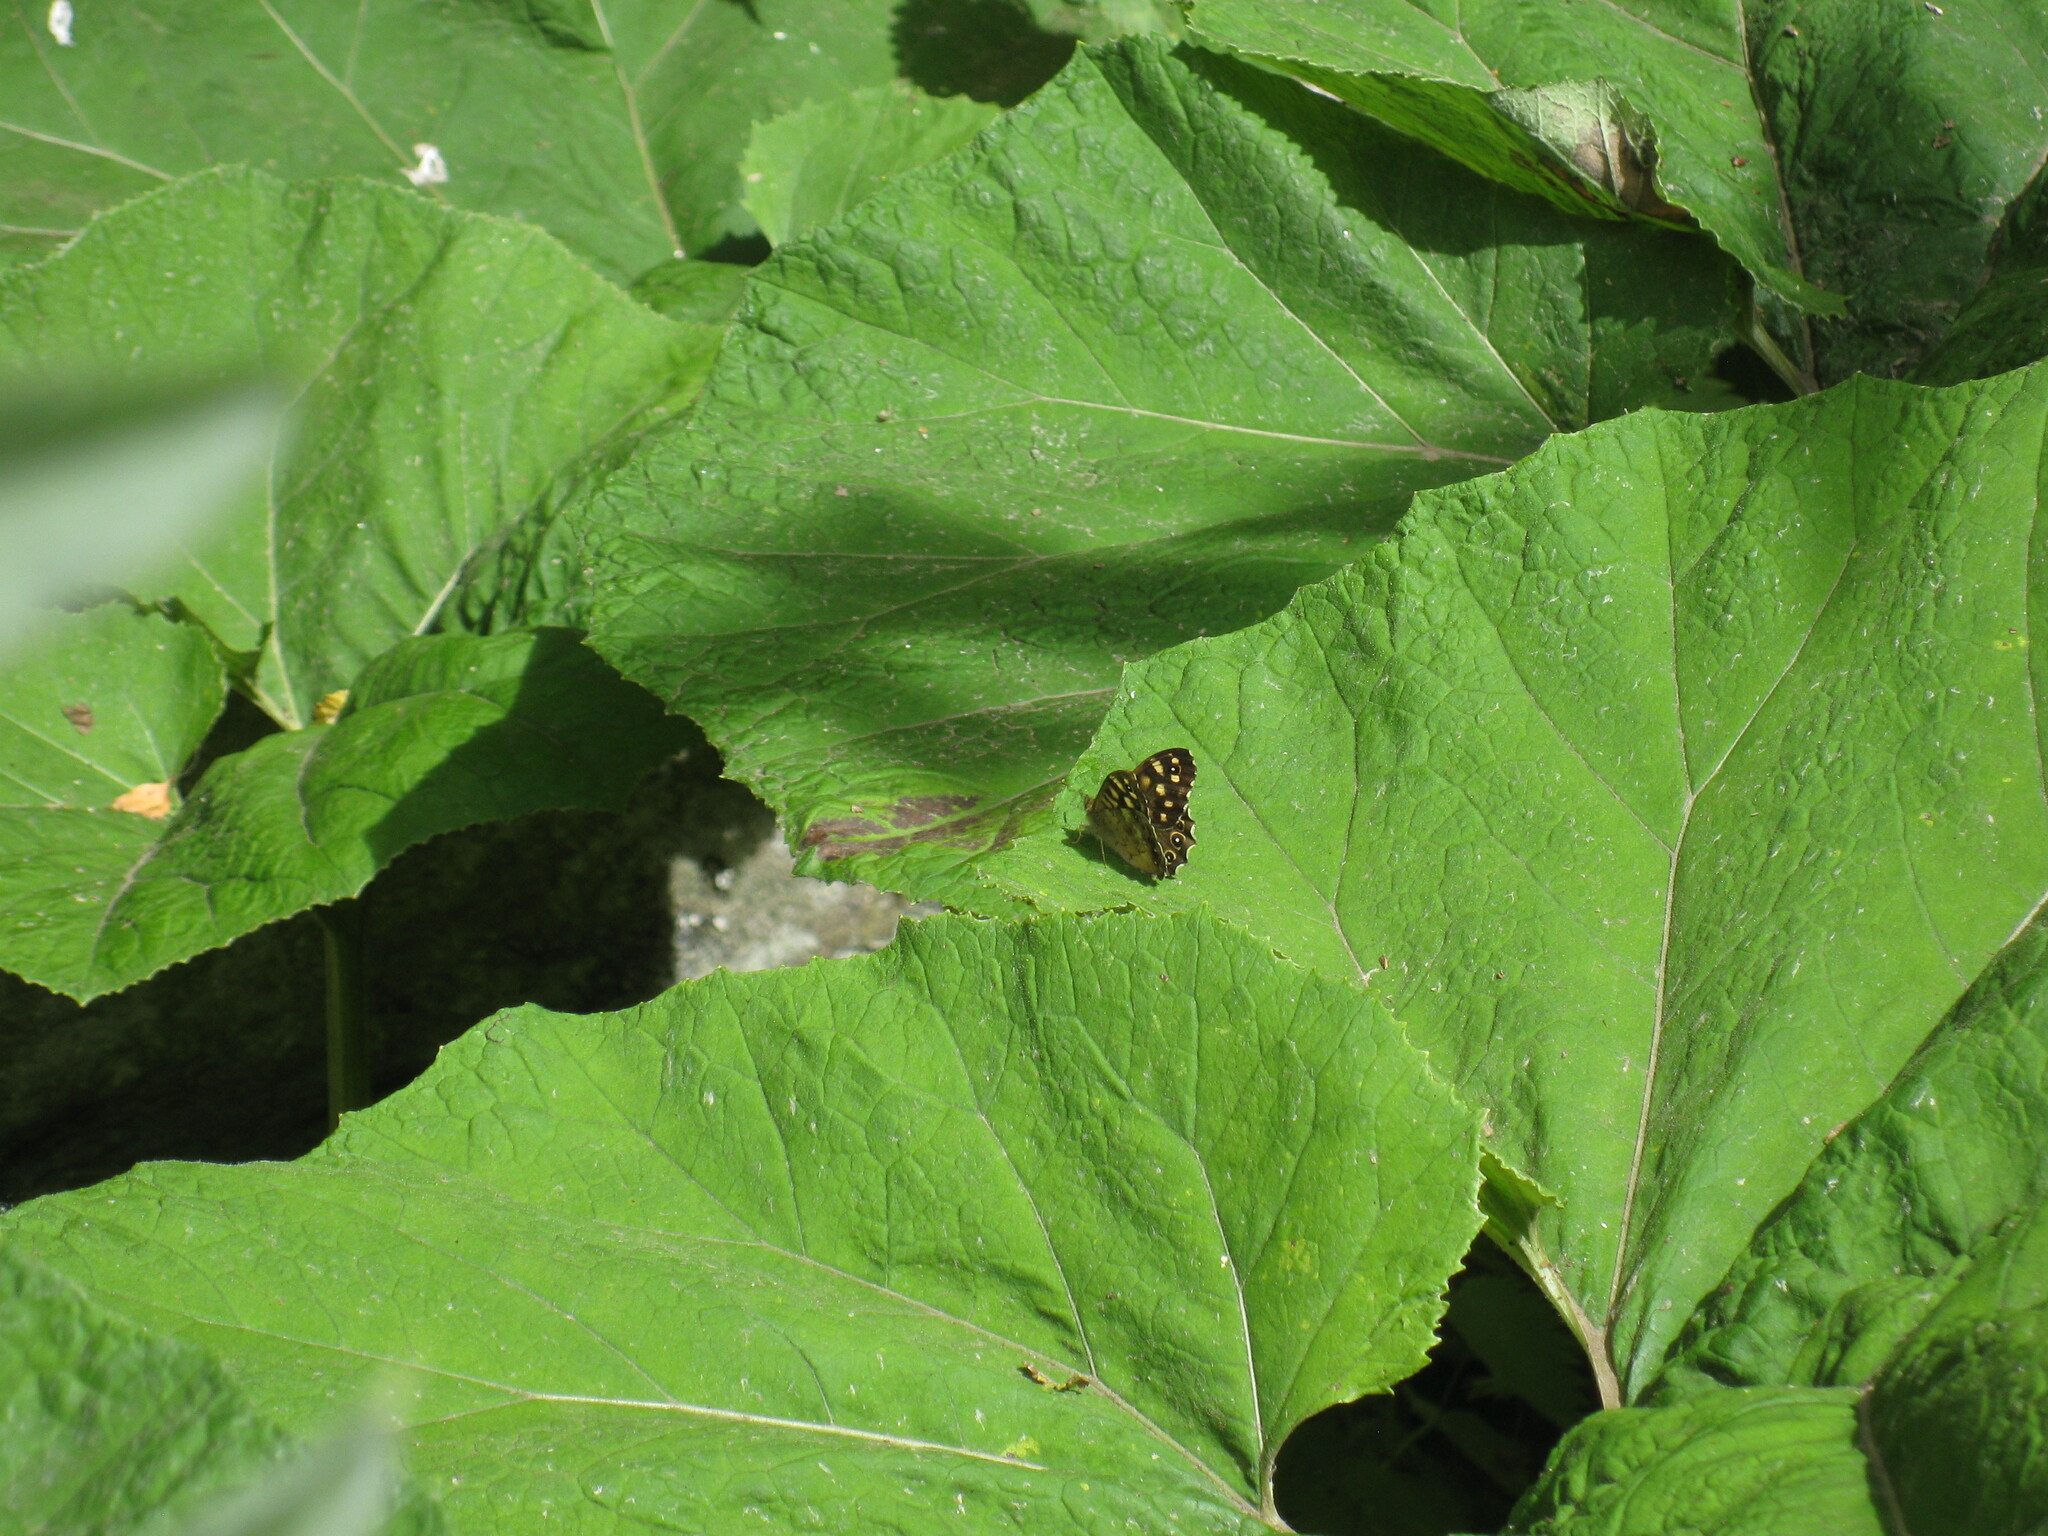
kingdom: Animalia
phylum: Arthropoda
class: Insecta
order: Lepidoptera
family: Nymphalidae
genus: Pararge
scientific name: Pararge aegeria
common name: Speckled wood
